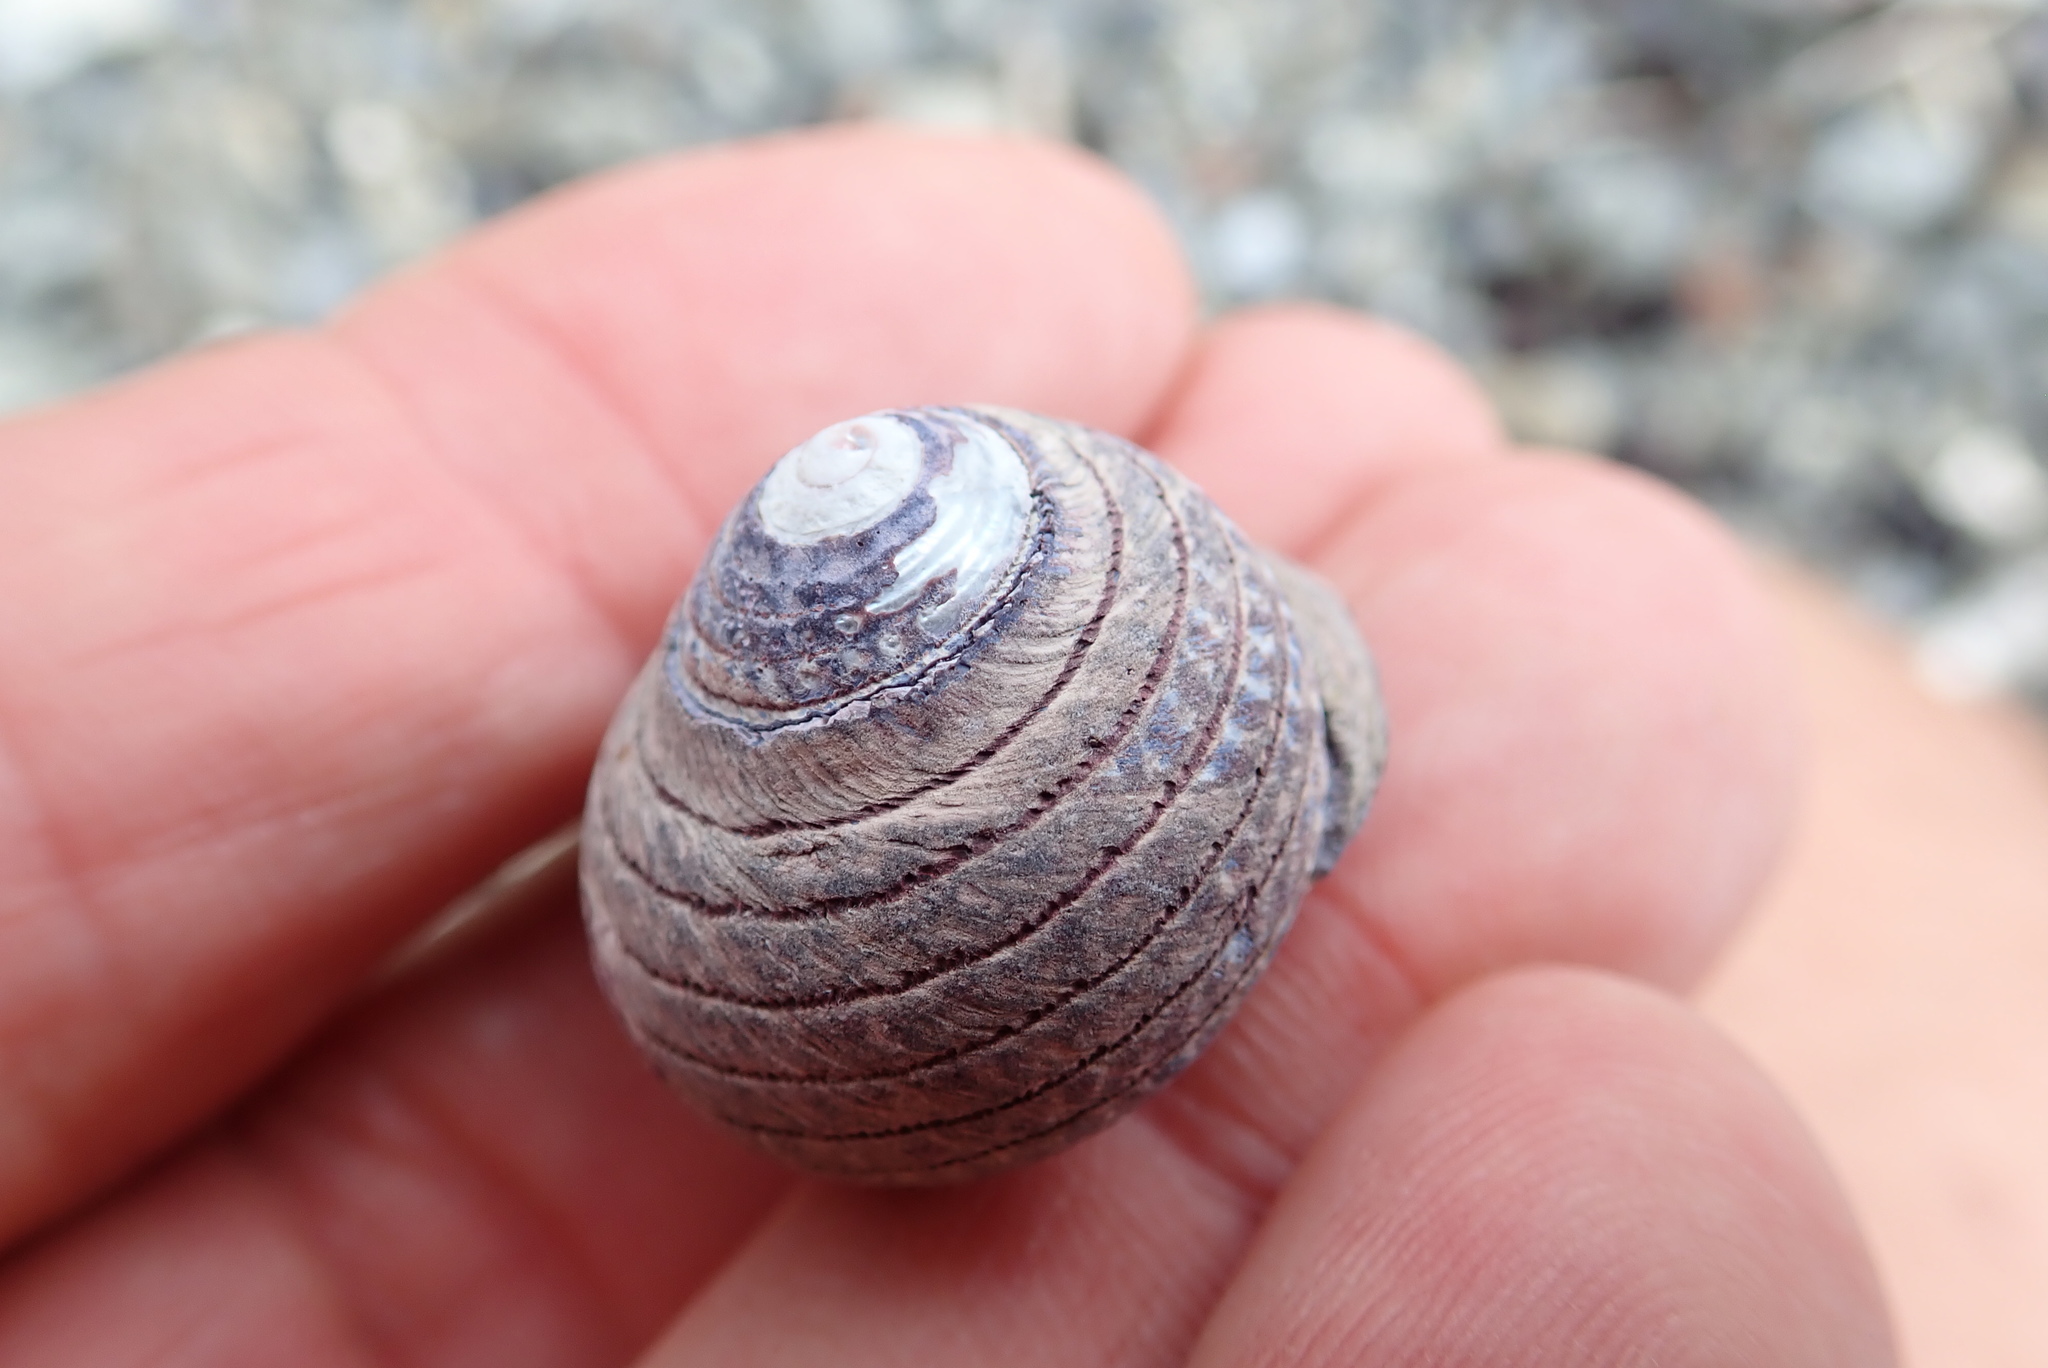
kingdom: Animalia
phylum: Mollusca
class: Gastropoda
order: Trochida
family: Trochidae
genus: Diloma
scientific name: Diloma aethiops
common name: Scorched monodont
